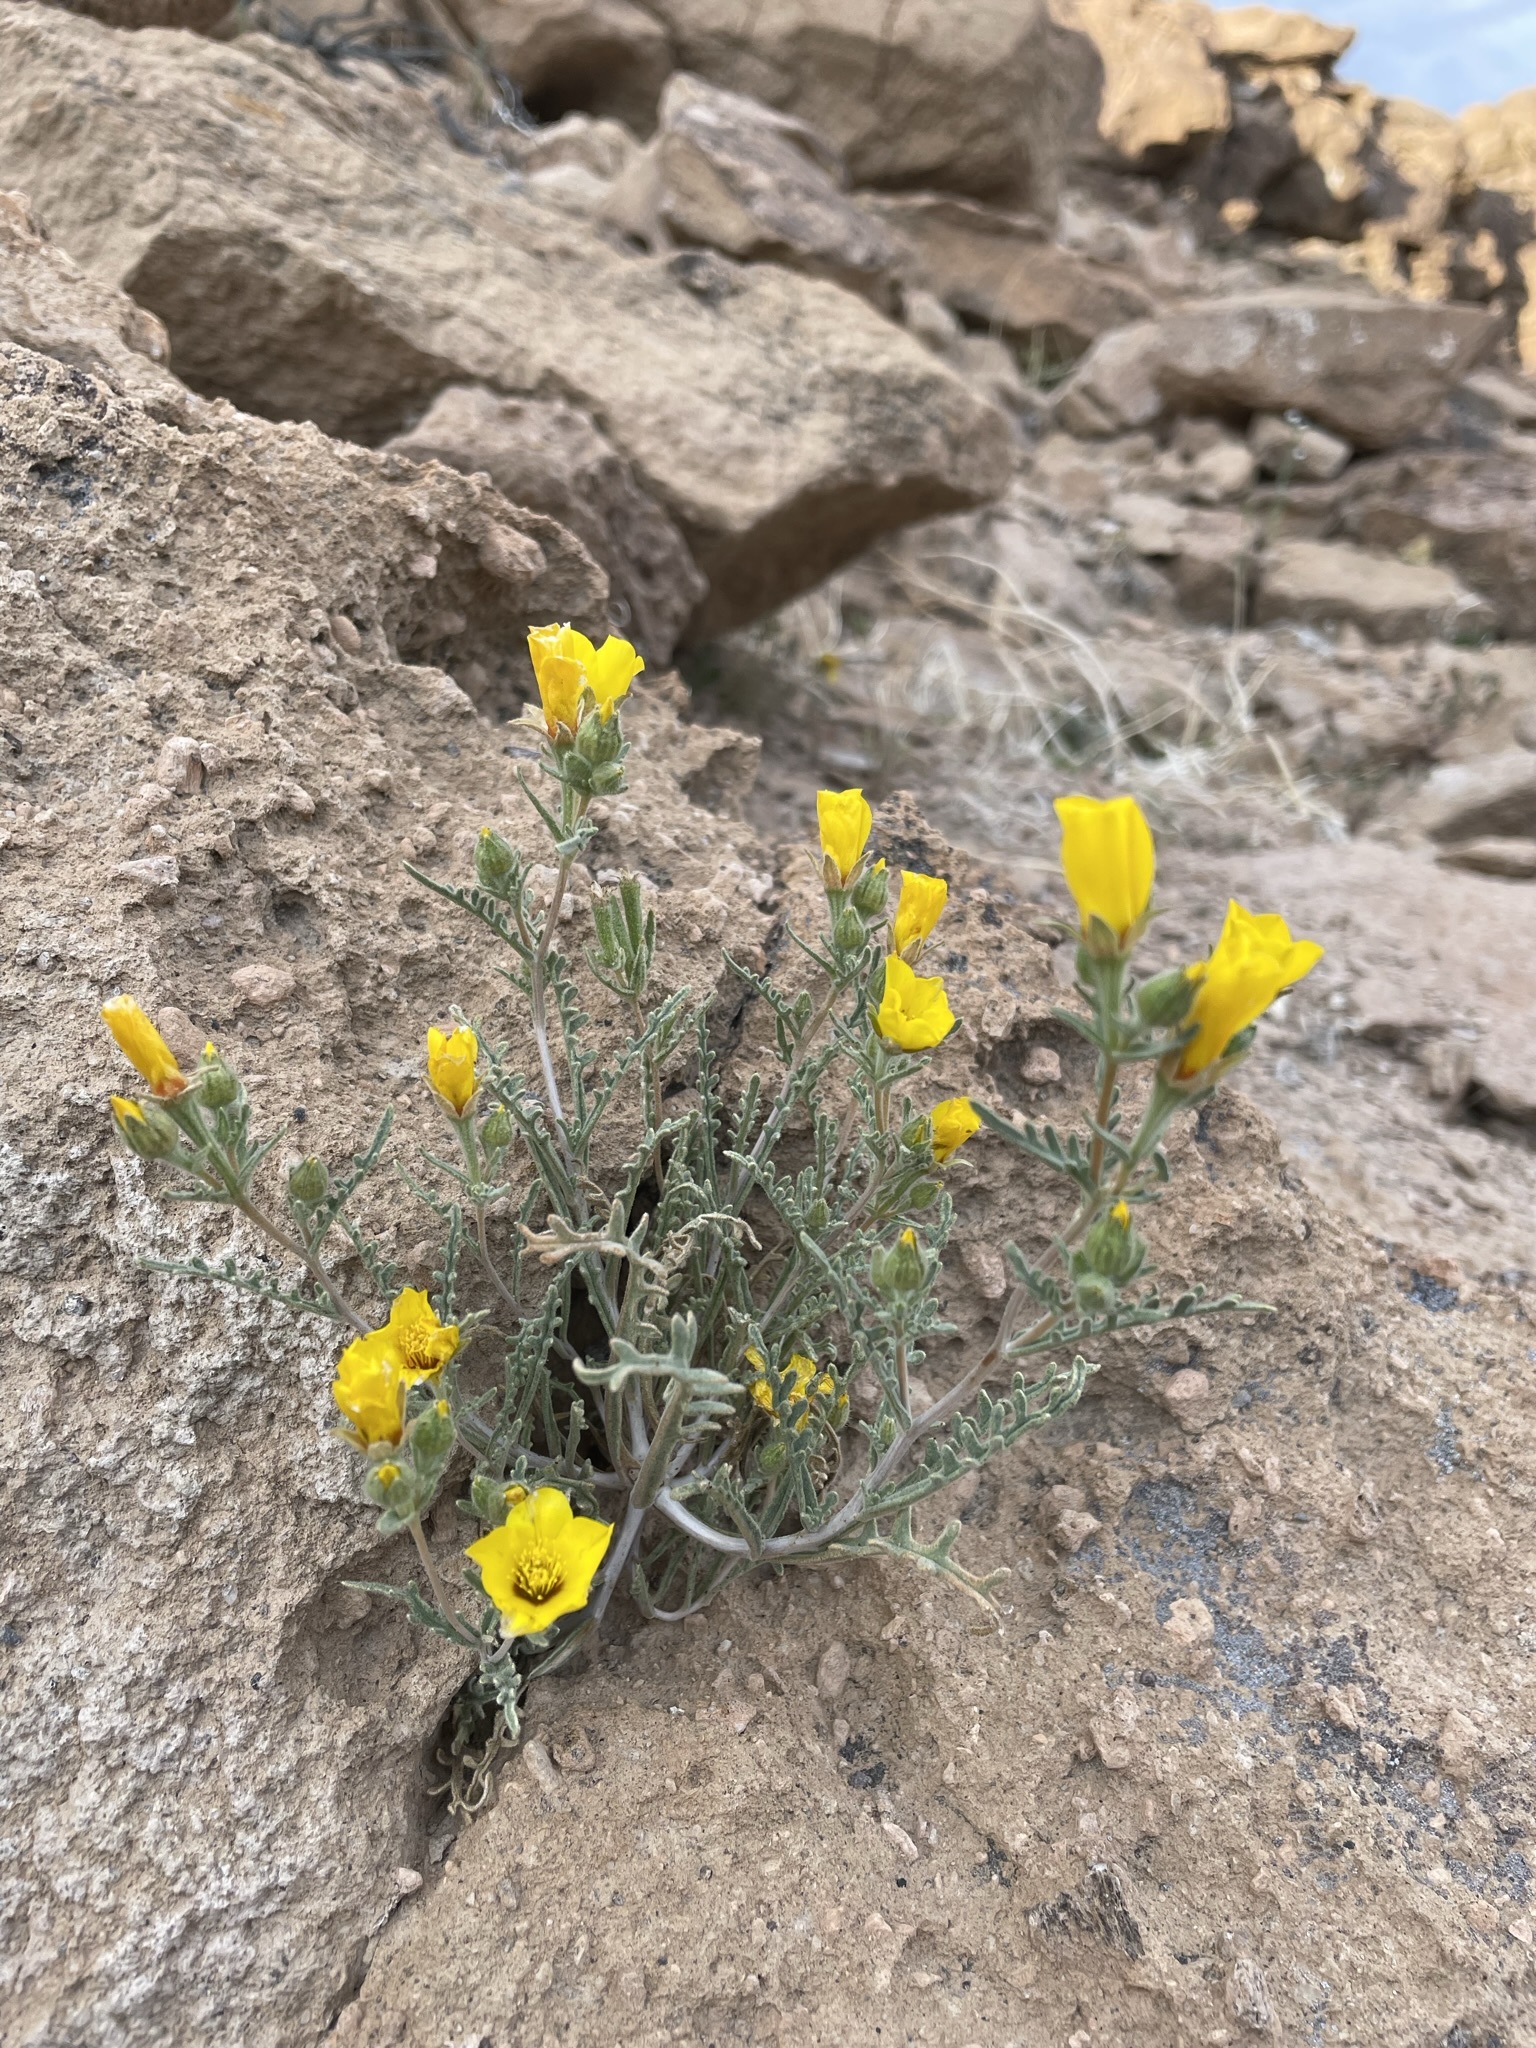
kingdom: Plantae
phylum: Tracheophyta
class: Magnoliopsida
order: Cornales
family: Loasaceae
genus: Mentzelia
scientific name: Mentzelia nitens
